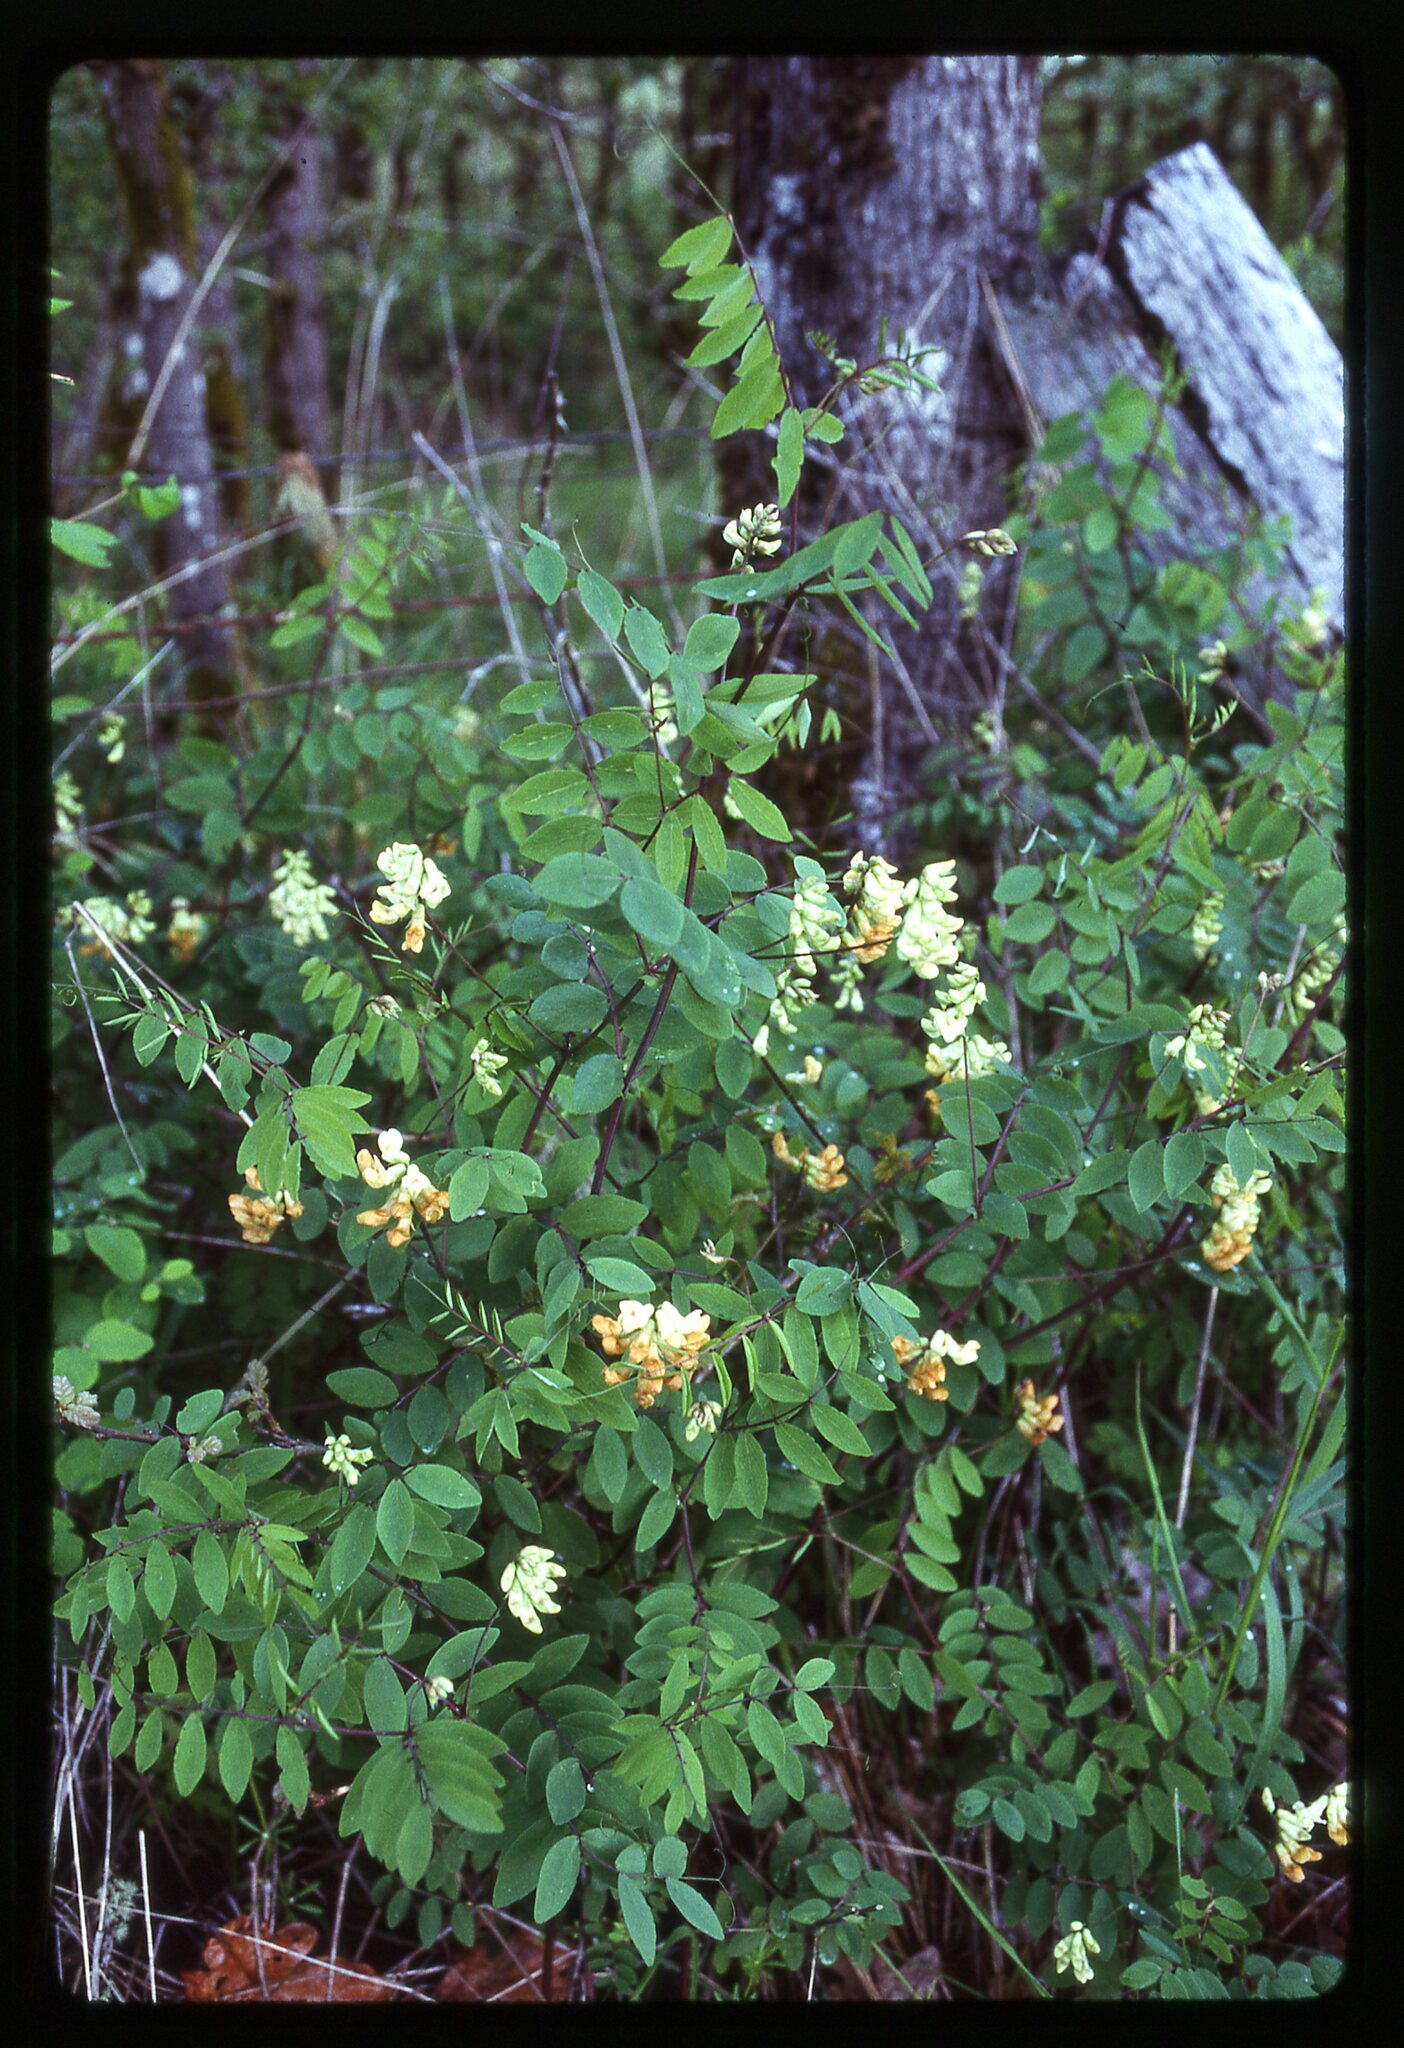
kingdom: Plantae
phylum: Tracheophyta
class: Magnoliopsida
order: Fabales
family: Fabaceae
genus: Lathyrus
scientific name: Lathyrus holochlorus
